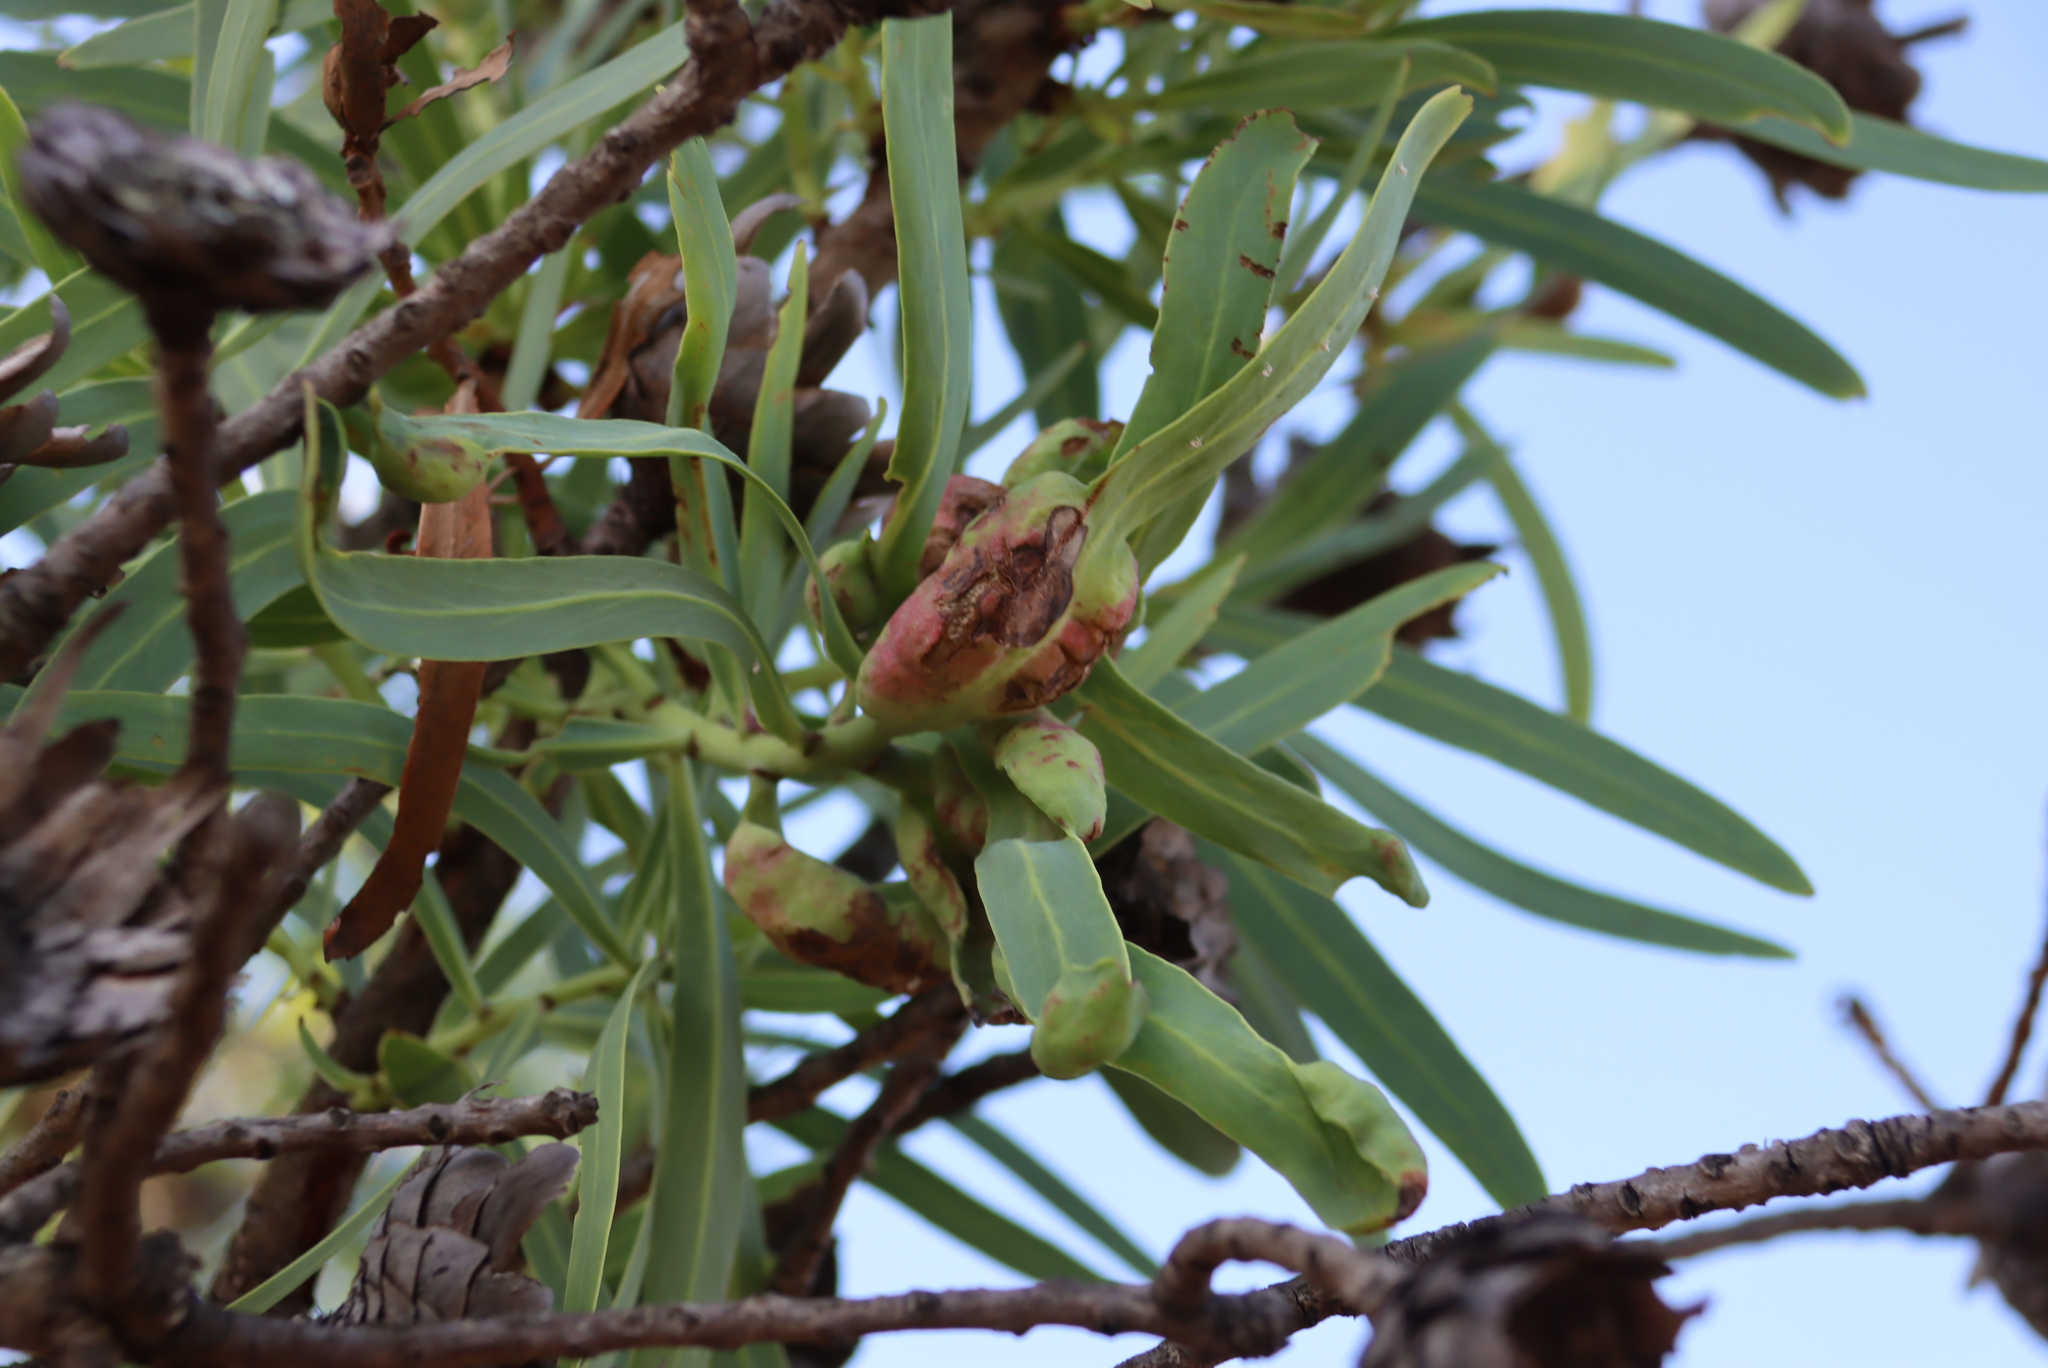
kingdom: Plantae
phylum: Tracheophyta
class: Magnoliopsida
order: Proteales
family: Proteaceae
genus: Protea
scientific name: Protea caffra
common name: Common sugarbush
